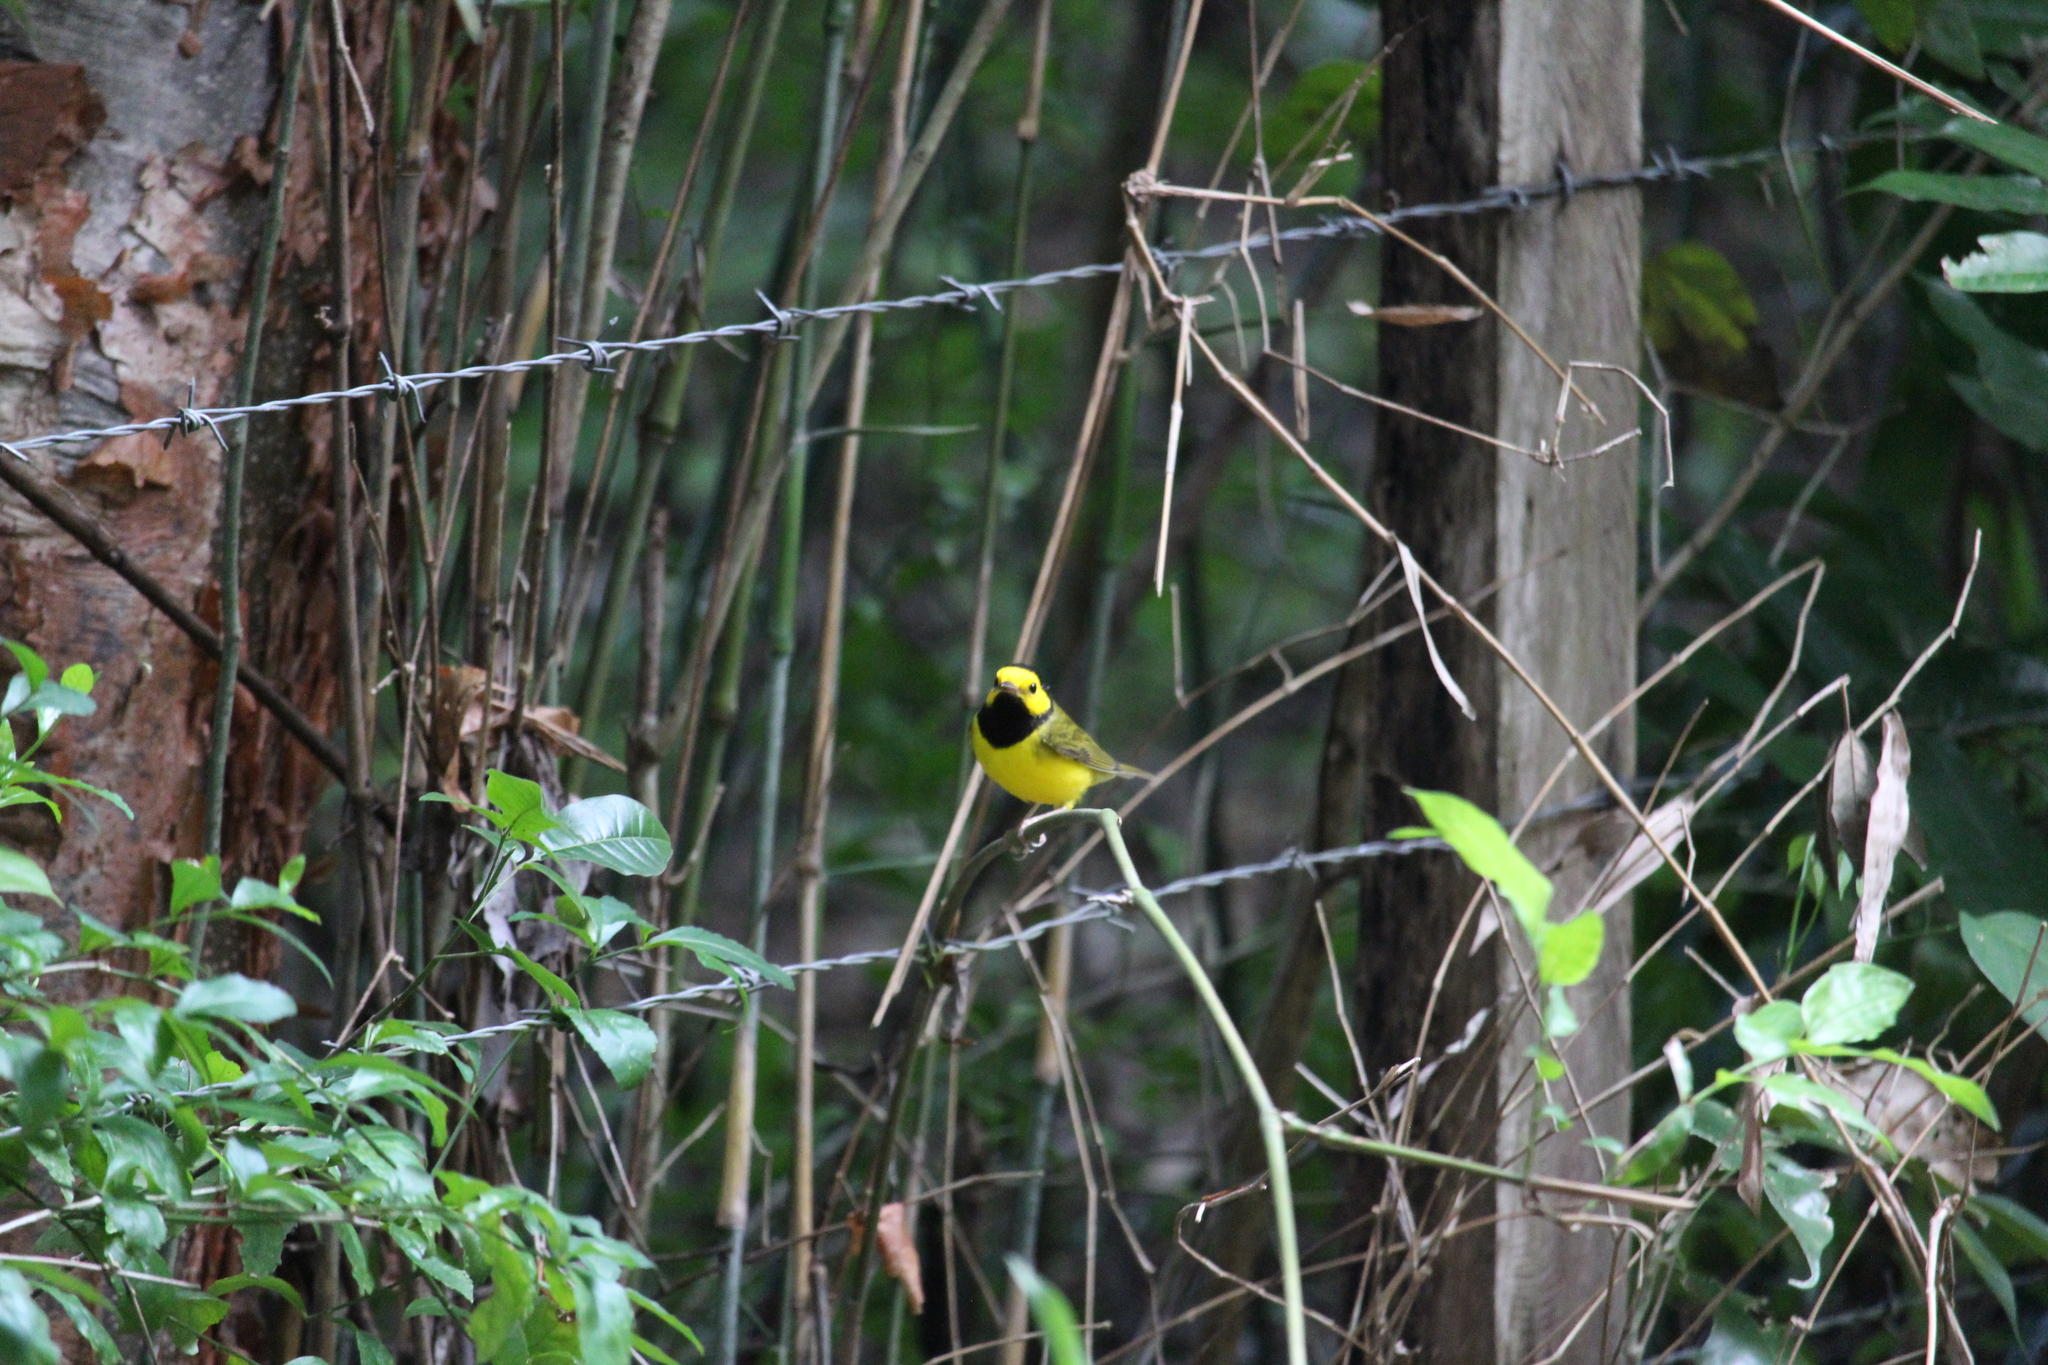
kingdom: Animalia
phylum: Chordata
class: Aves
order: Passeriformes
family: Parulidae
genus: Setophaga
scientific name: Setophaga citrina
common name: Hooded warbler
